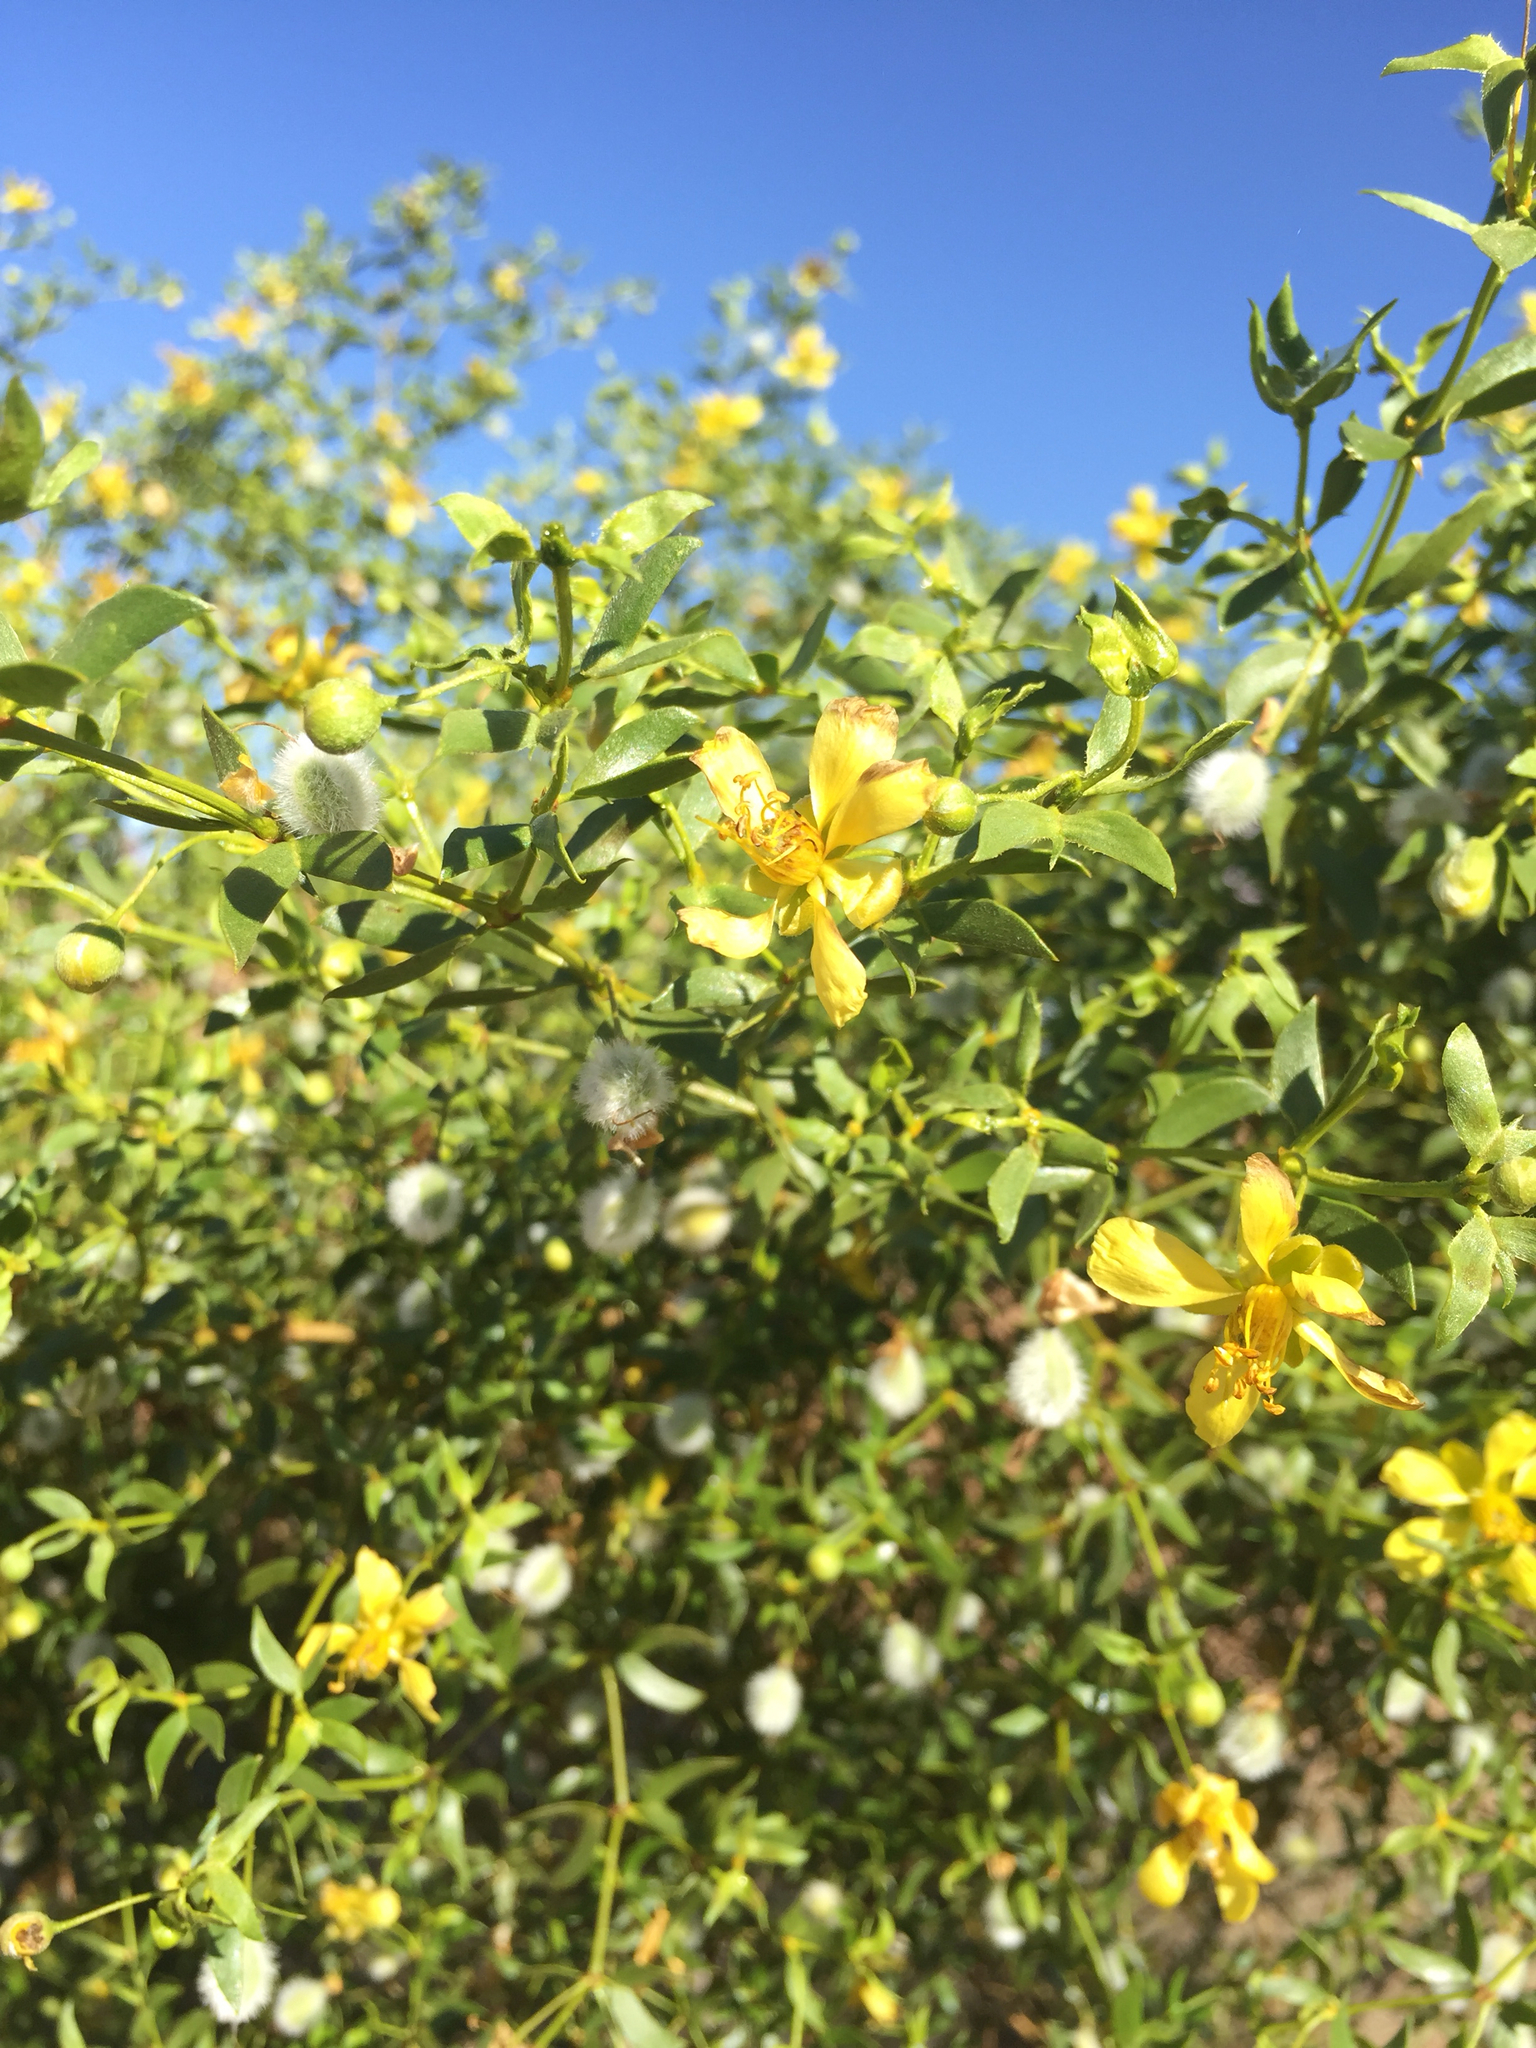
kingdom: Plantae
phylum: Tracheophyta
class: Magnoliopsida
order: Zygophyllales
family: Zygophyllaceae
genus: Larrea
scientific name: Larrea tridentata
